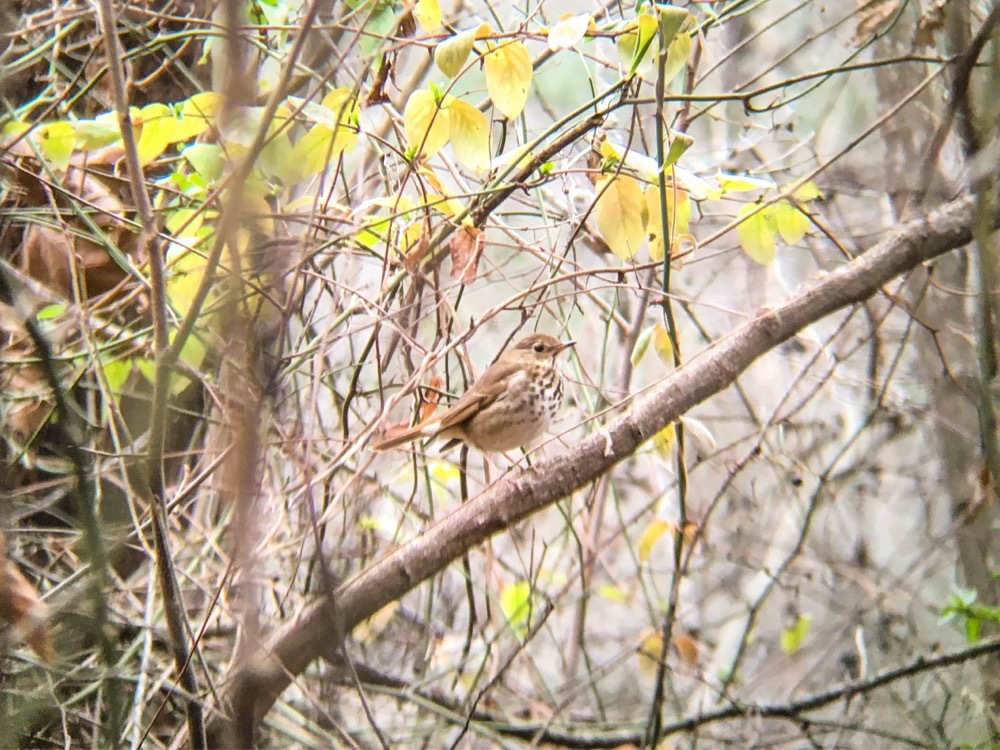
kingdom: Animalia
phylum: Chordata
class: Aves
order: Passeriformes
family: Turdidae
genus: Catharus
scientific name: Catharus guttatus
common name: Hermit thrush
